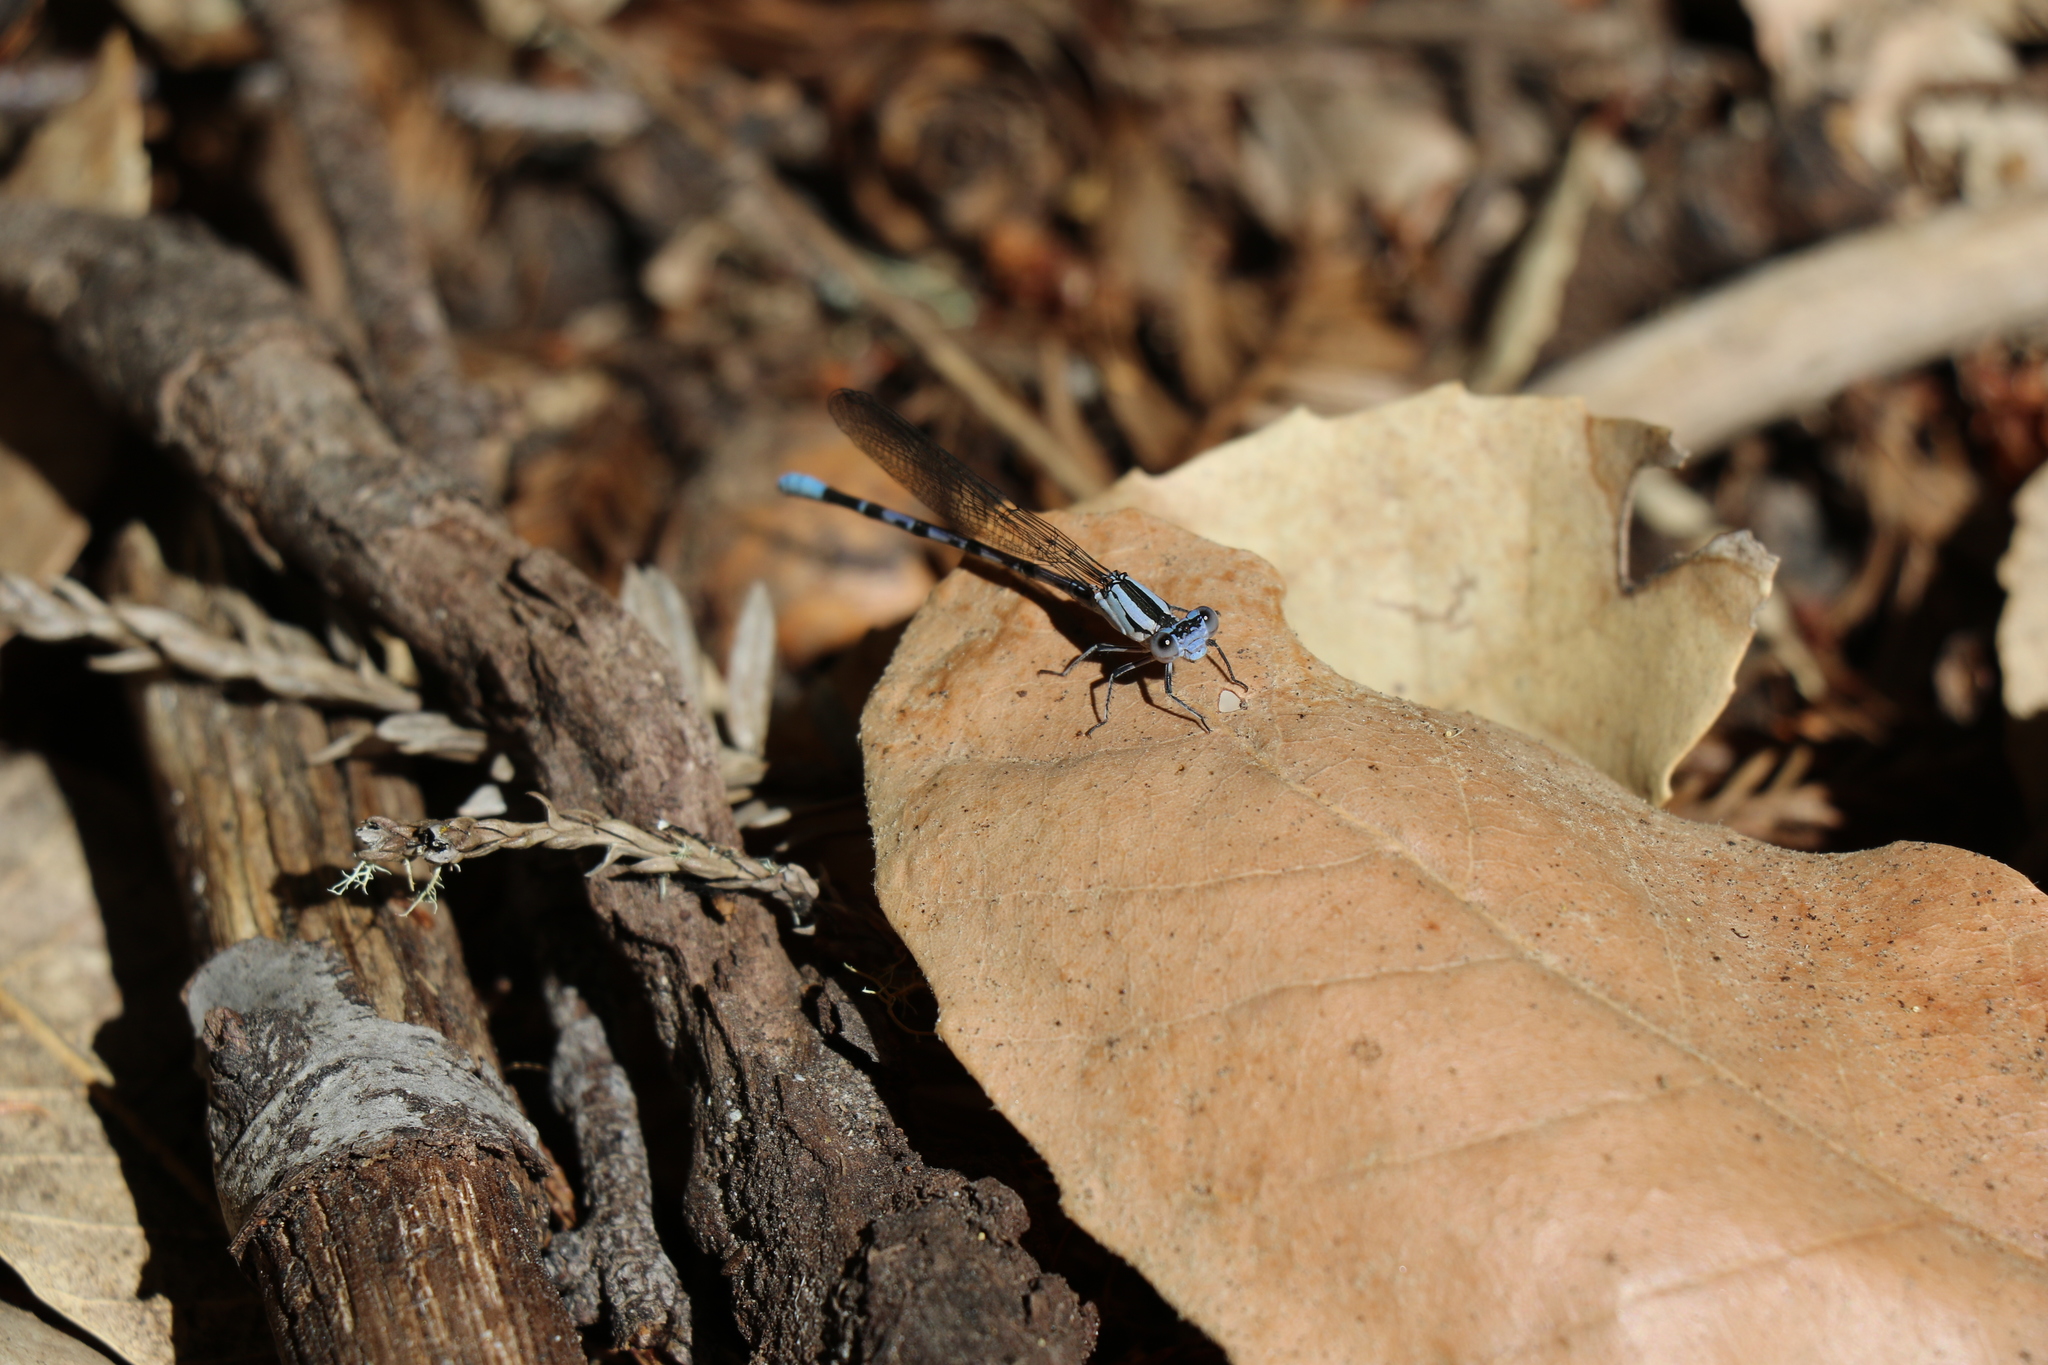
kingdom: Animalia
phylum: Arthropoda
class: Insecta
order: Odonata
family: Coenagrionidae
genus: Argia
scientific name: Argia vivida
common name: Vivid dancer
